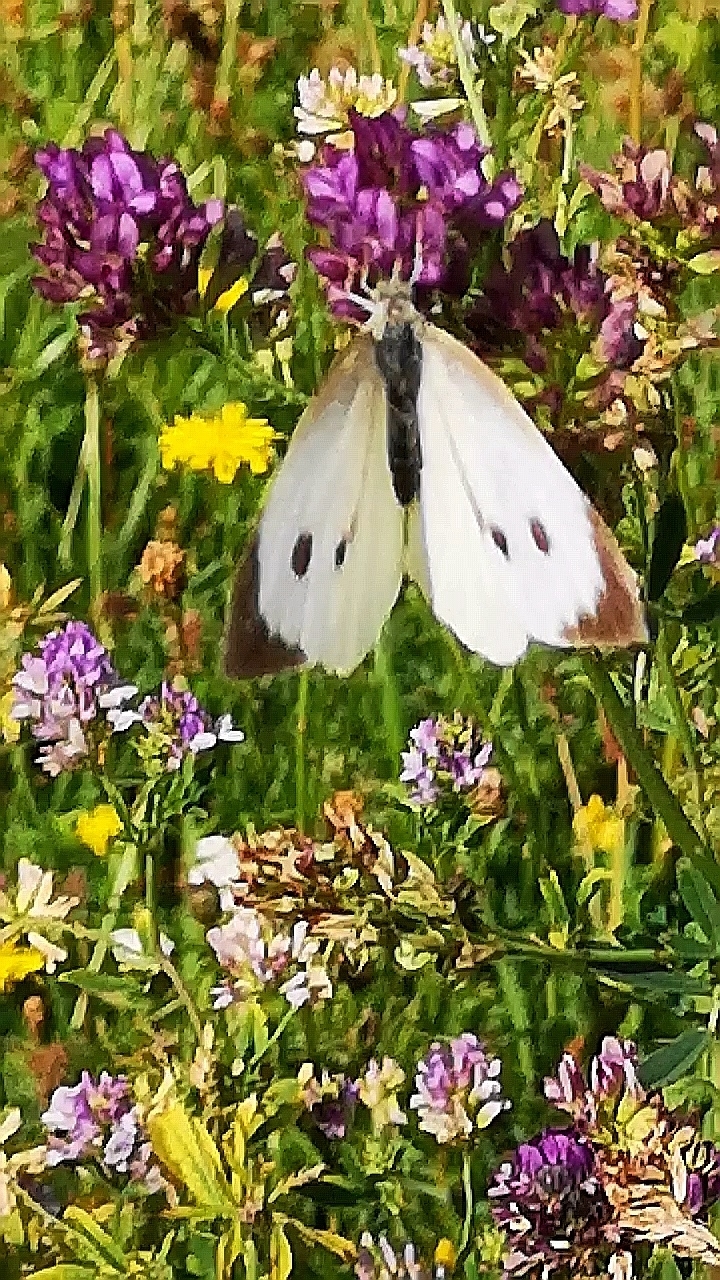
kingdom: Animalia
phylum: Arthropoda
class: Insecta
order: Lepidoptera
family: Pieridae
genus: Pieris
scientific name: Pieris brassicae
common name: Large white
